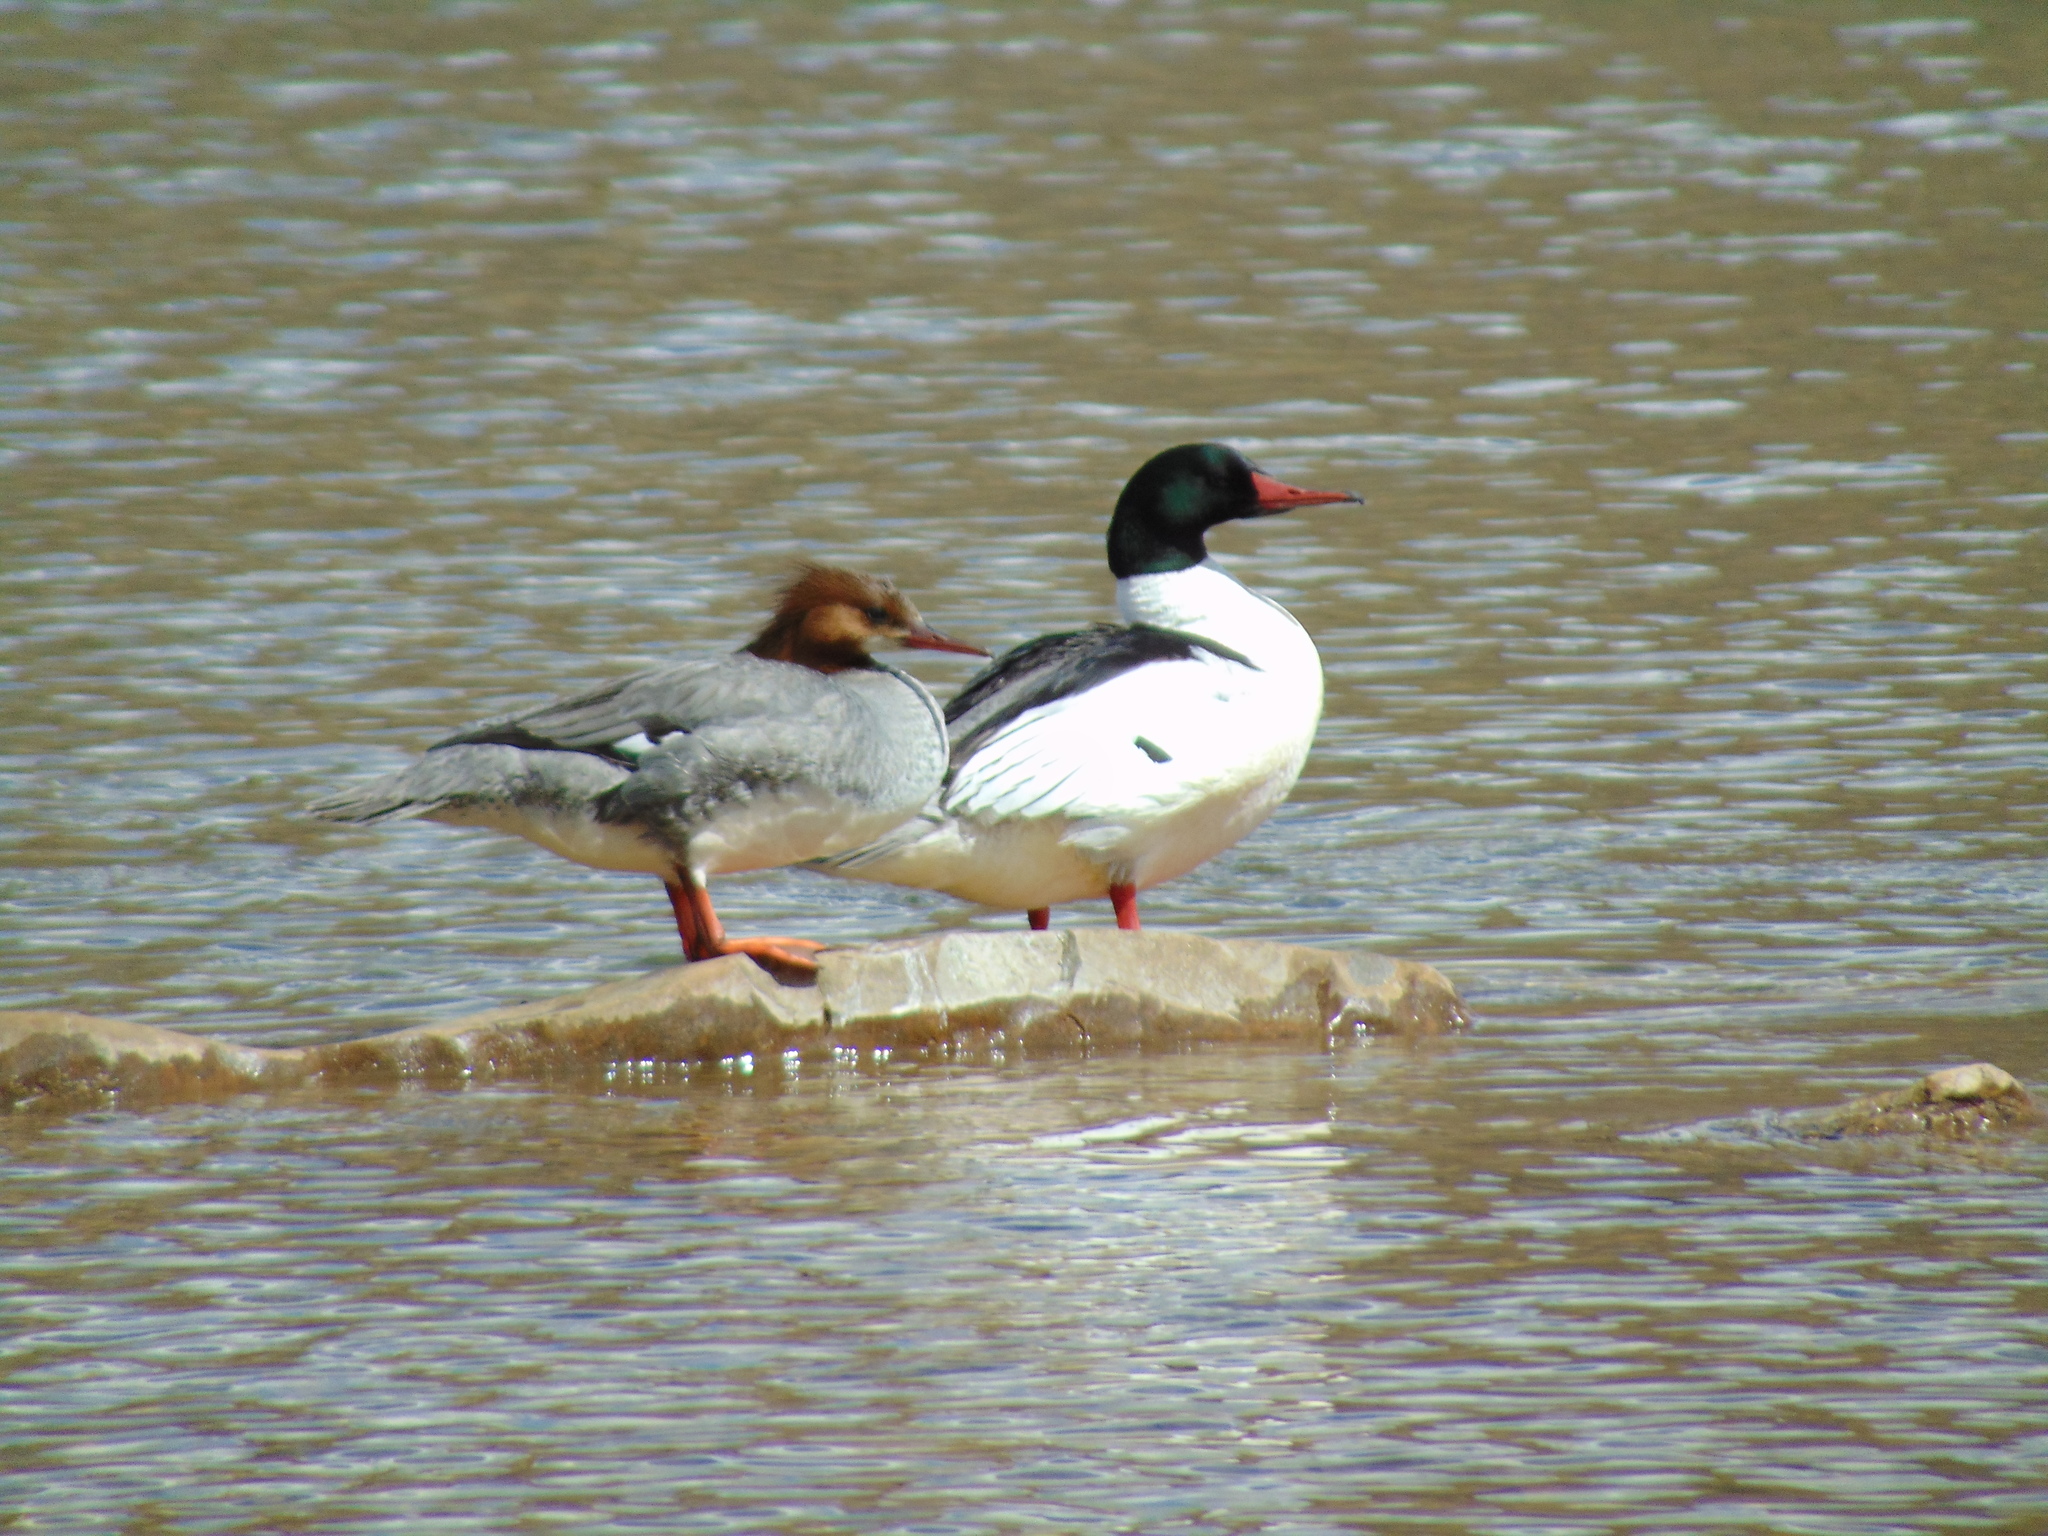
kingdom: Animalia
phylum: Chordata
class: Aves
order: Anseriformes
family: Anatidae
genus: Mergus
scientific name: Mergus merganser
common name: Common merganser
